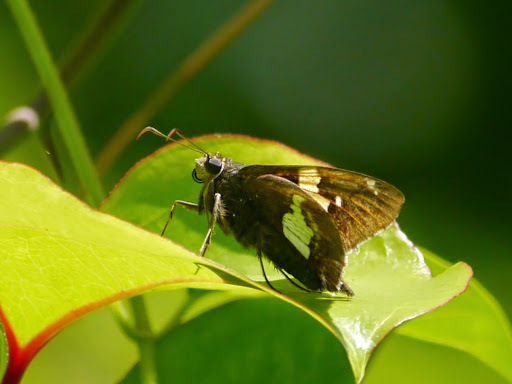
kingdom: Animalia
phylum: Arthropoda
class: Insecta
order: Lepidoptera
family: Hesperiidae
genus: Epargyreus
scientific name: Epargyreus clarus
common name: Silver-spotted skipper
